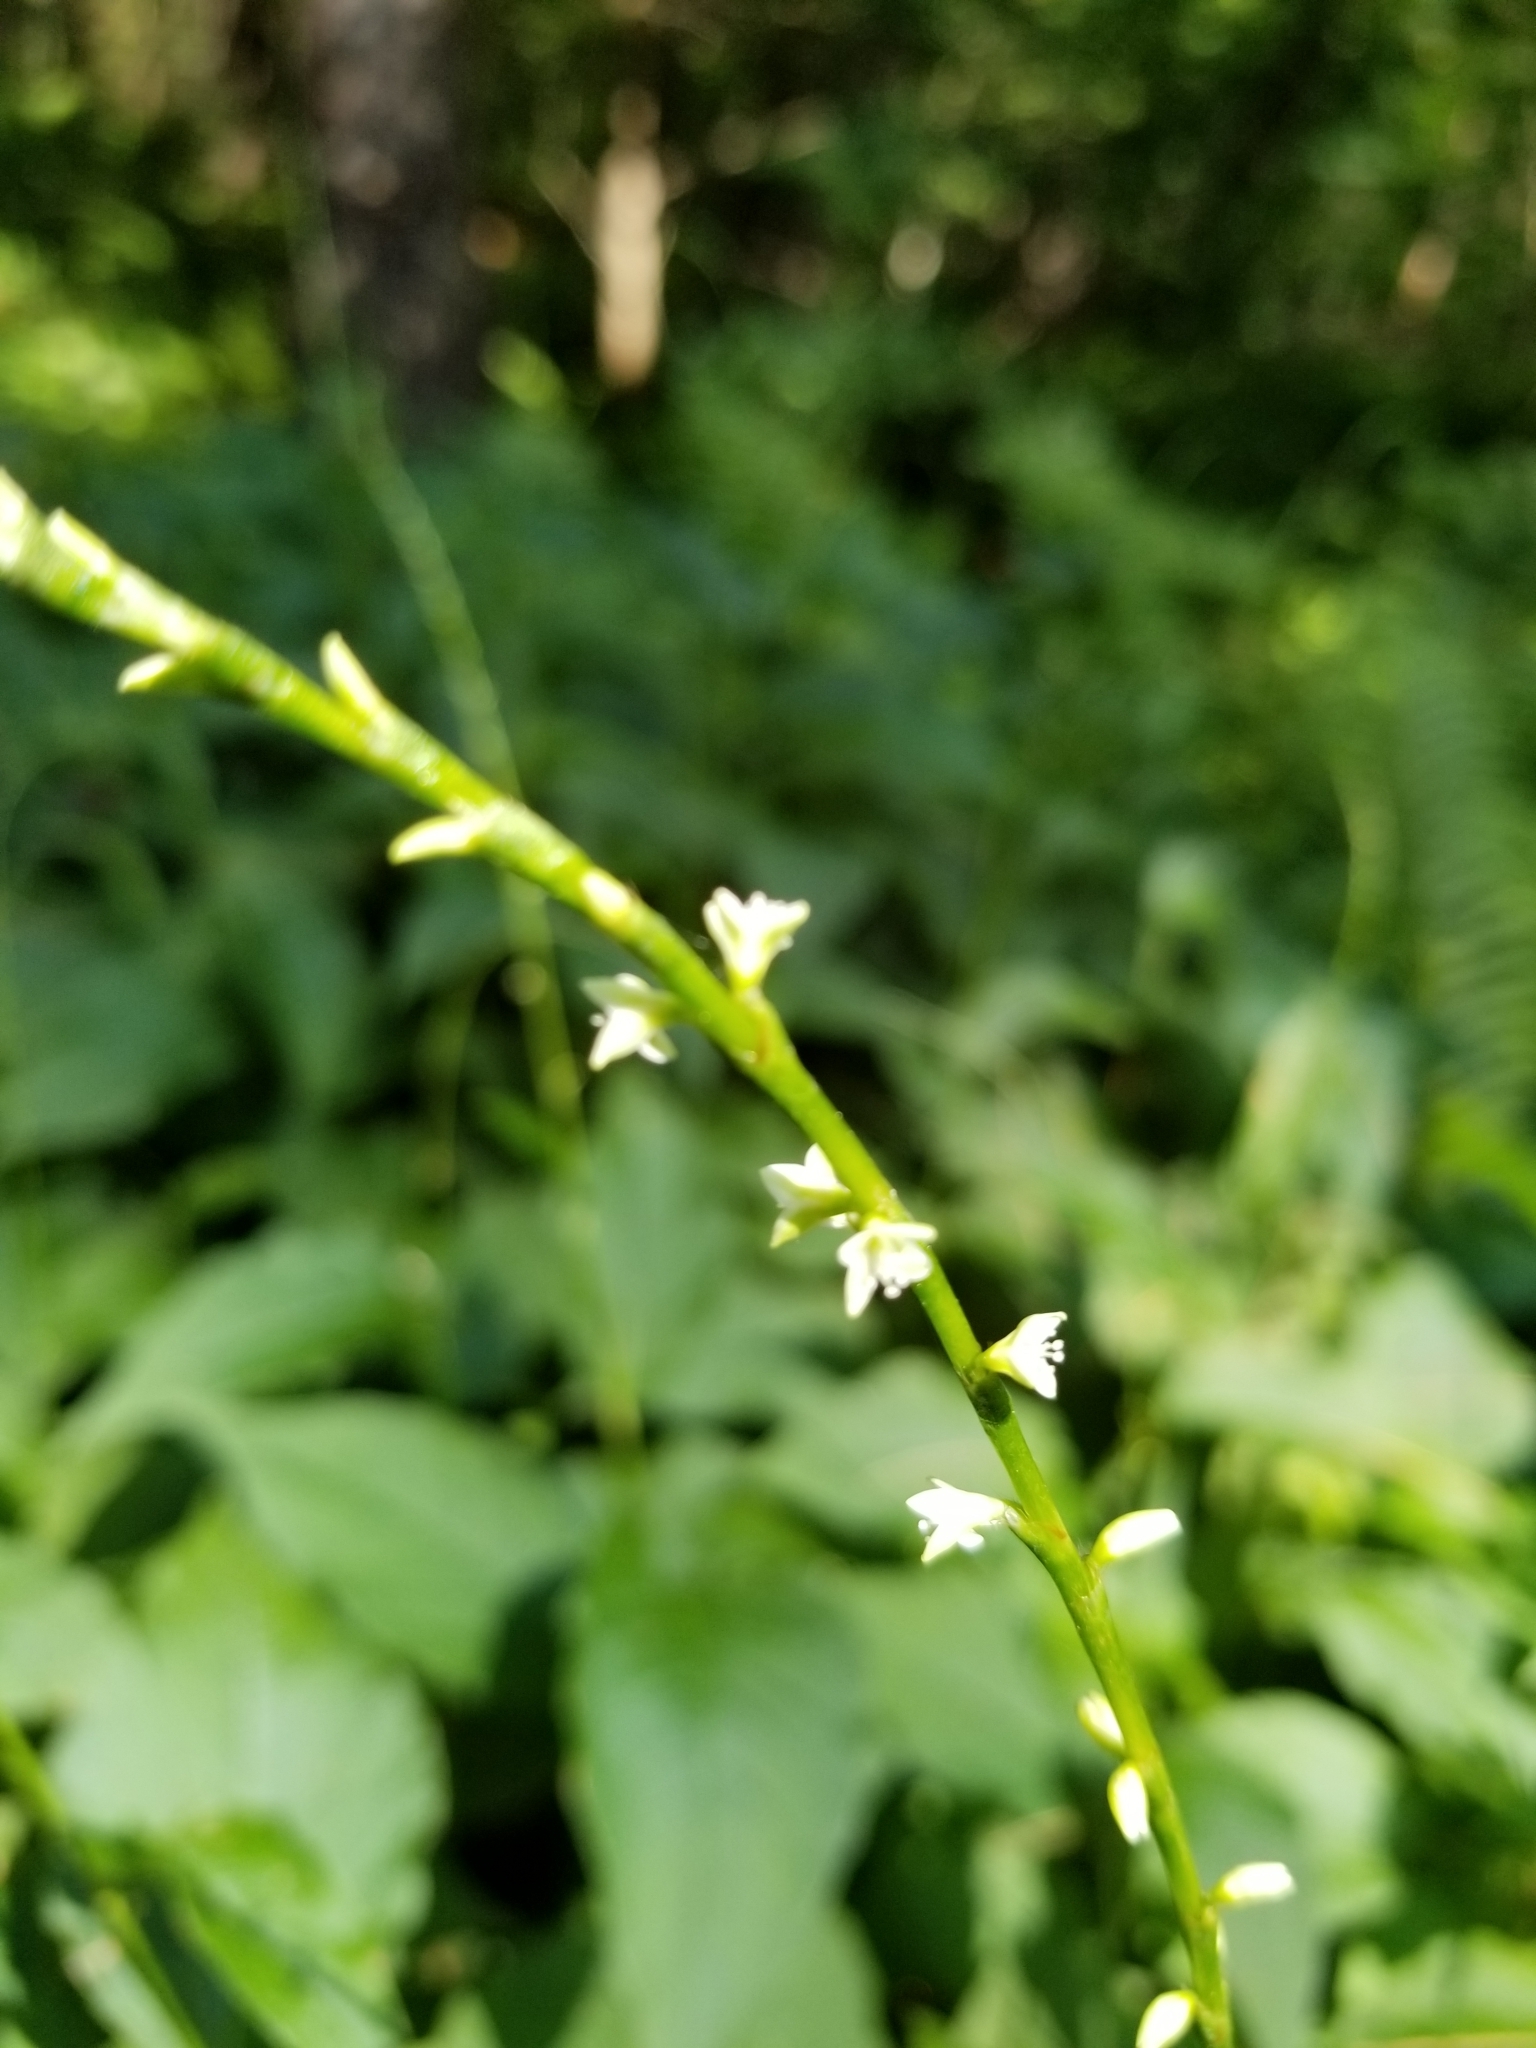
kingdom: Plantae
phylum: Tracheophyta
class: Magnoliopsida
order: Caryophyllales
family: Polygonaceae
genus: Persicaria
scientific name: Persicaria virginiana
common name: Jumpseed
